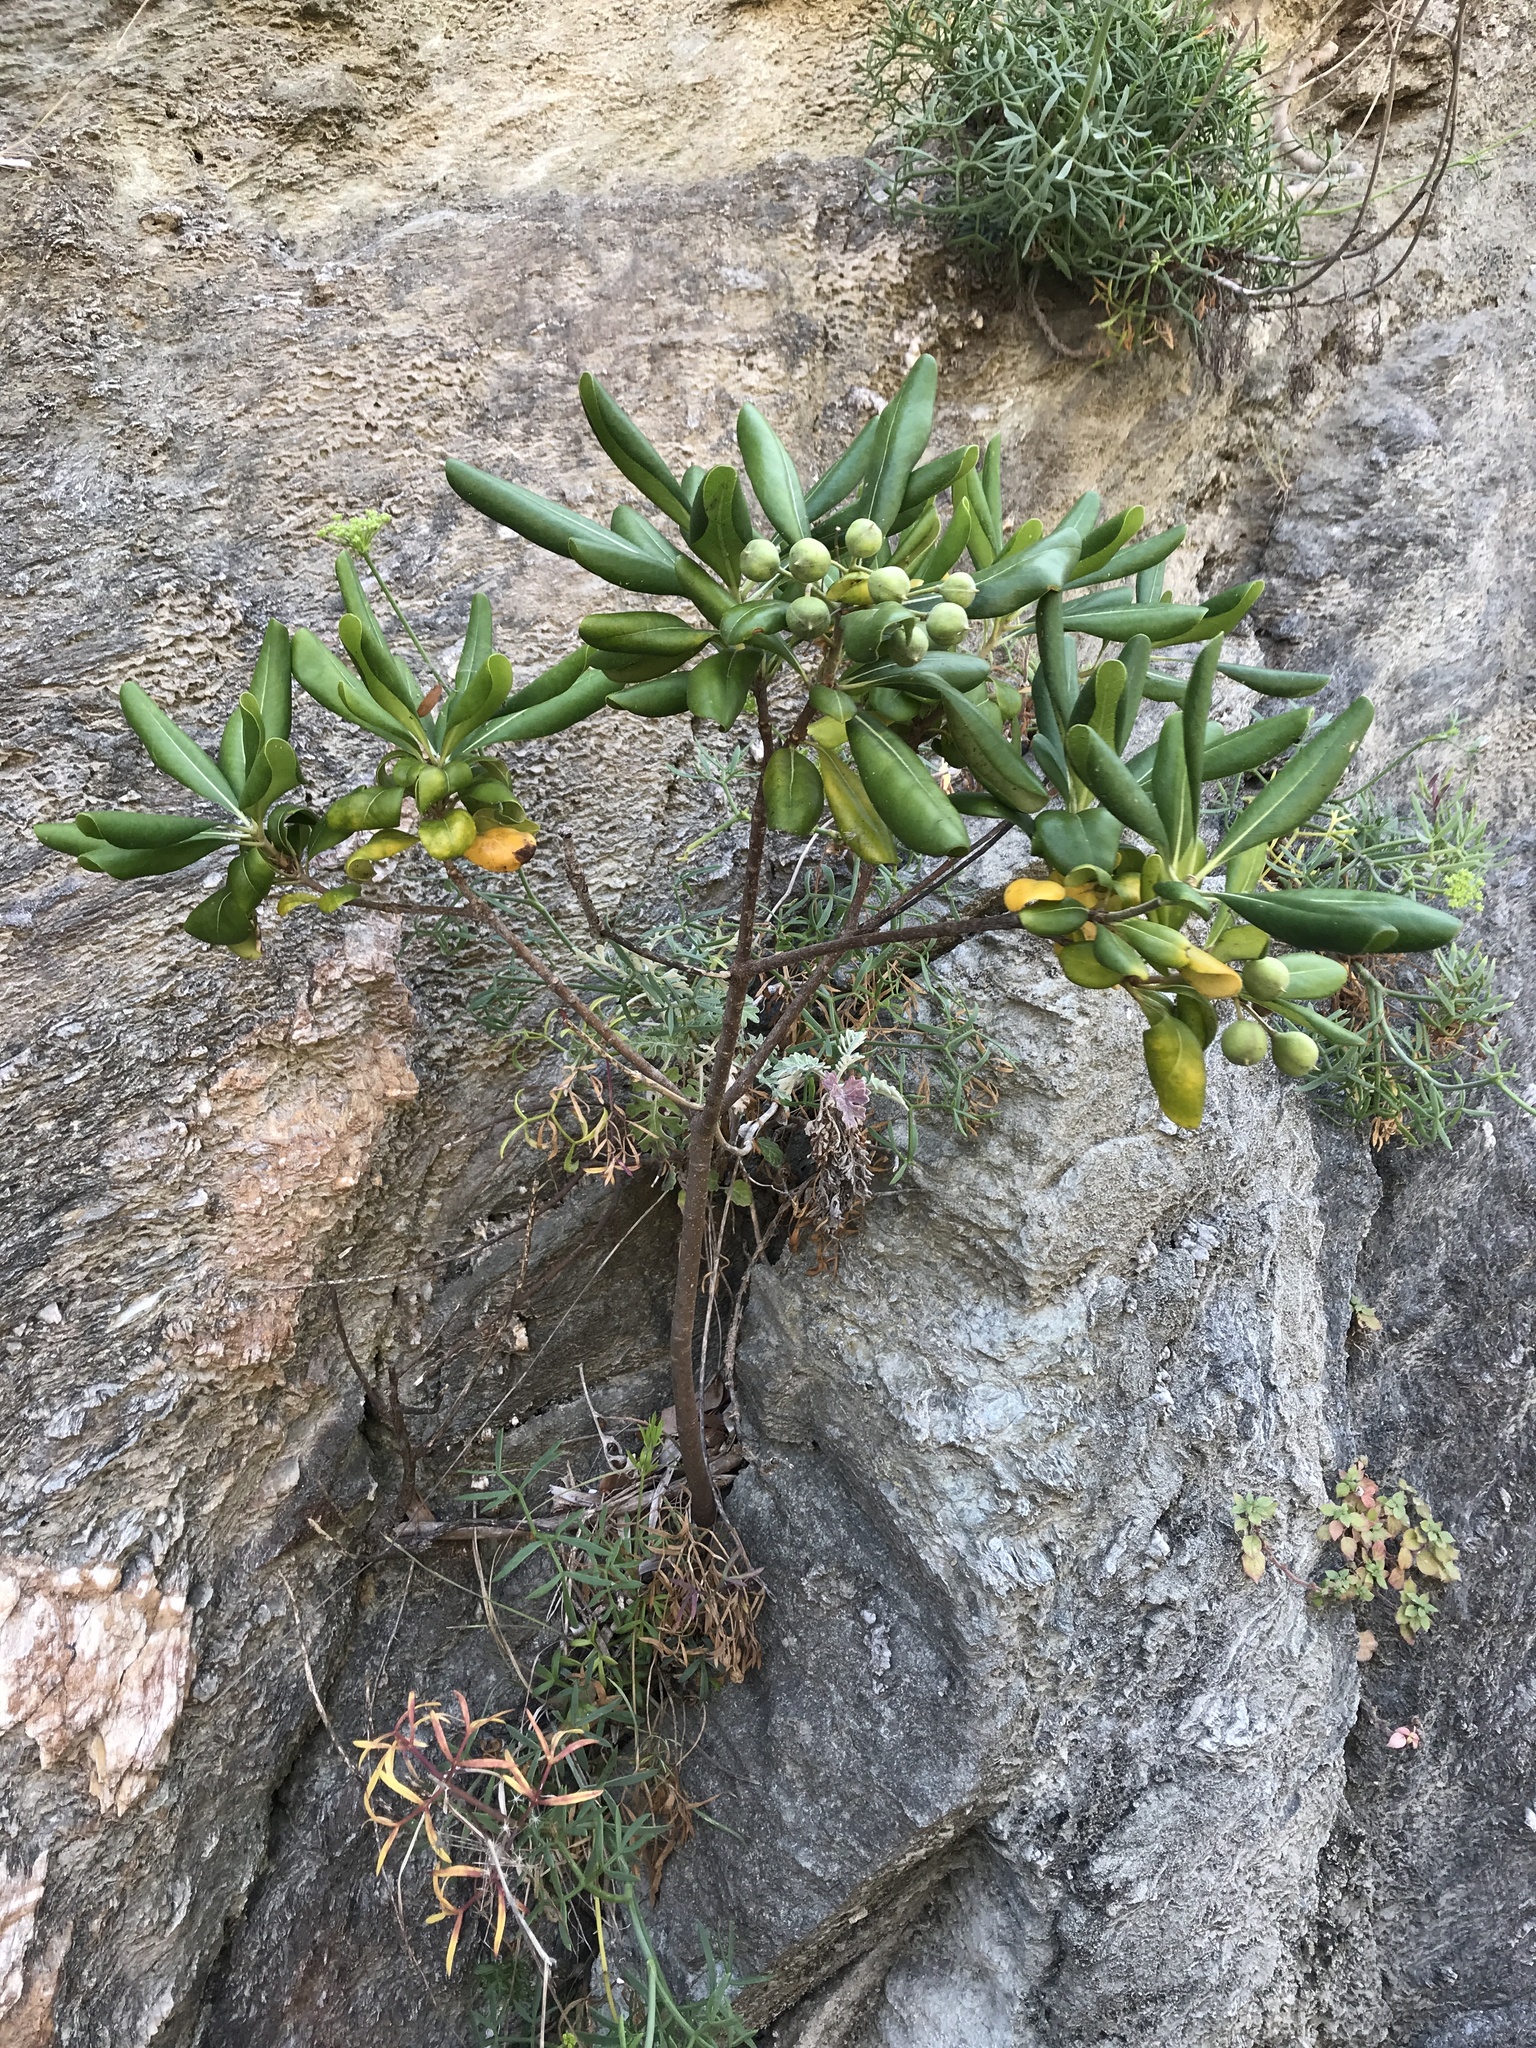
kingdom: Plantae
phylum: Tracheophyta
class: Magnoliopsida
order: Apiales
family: Pittosporaceae
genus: Pittosporum
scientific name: Pittosporum tobira
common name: Japanese cheesewood
